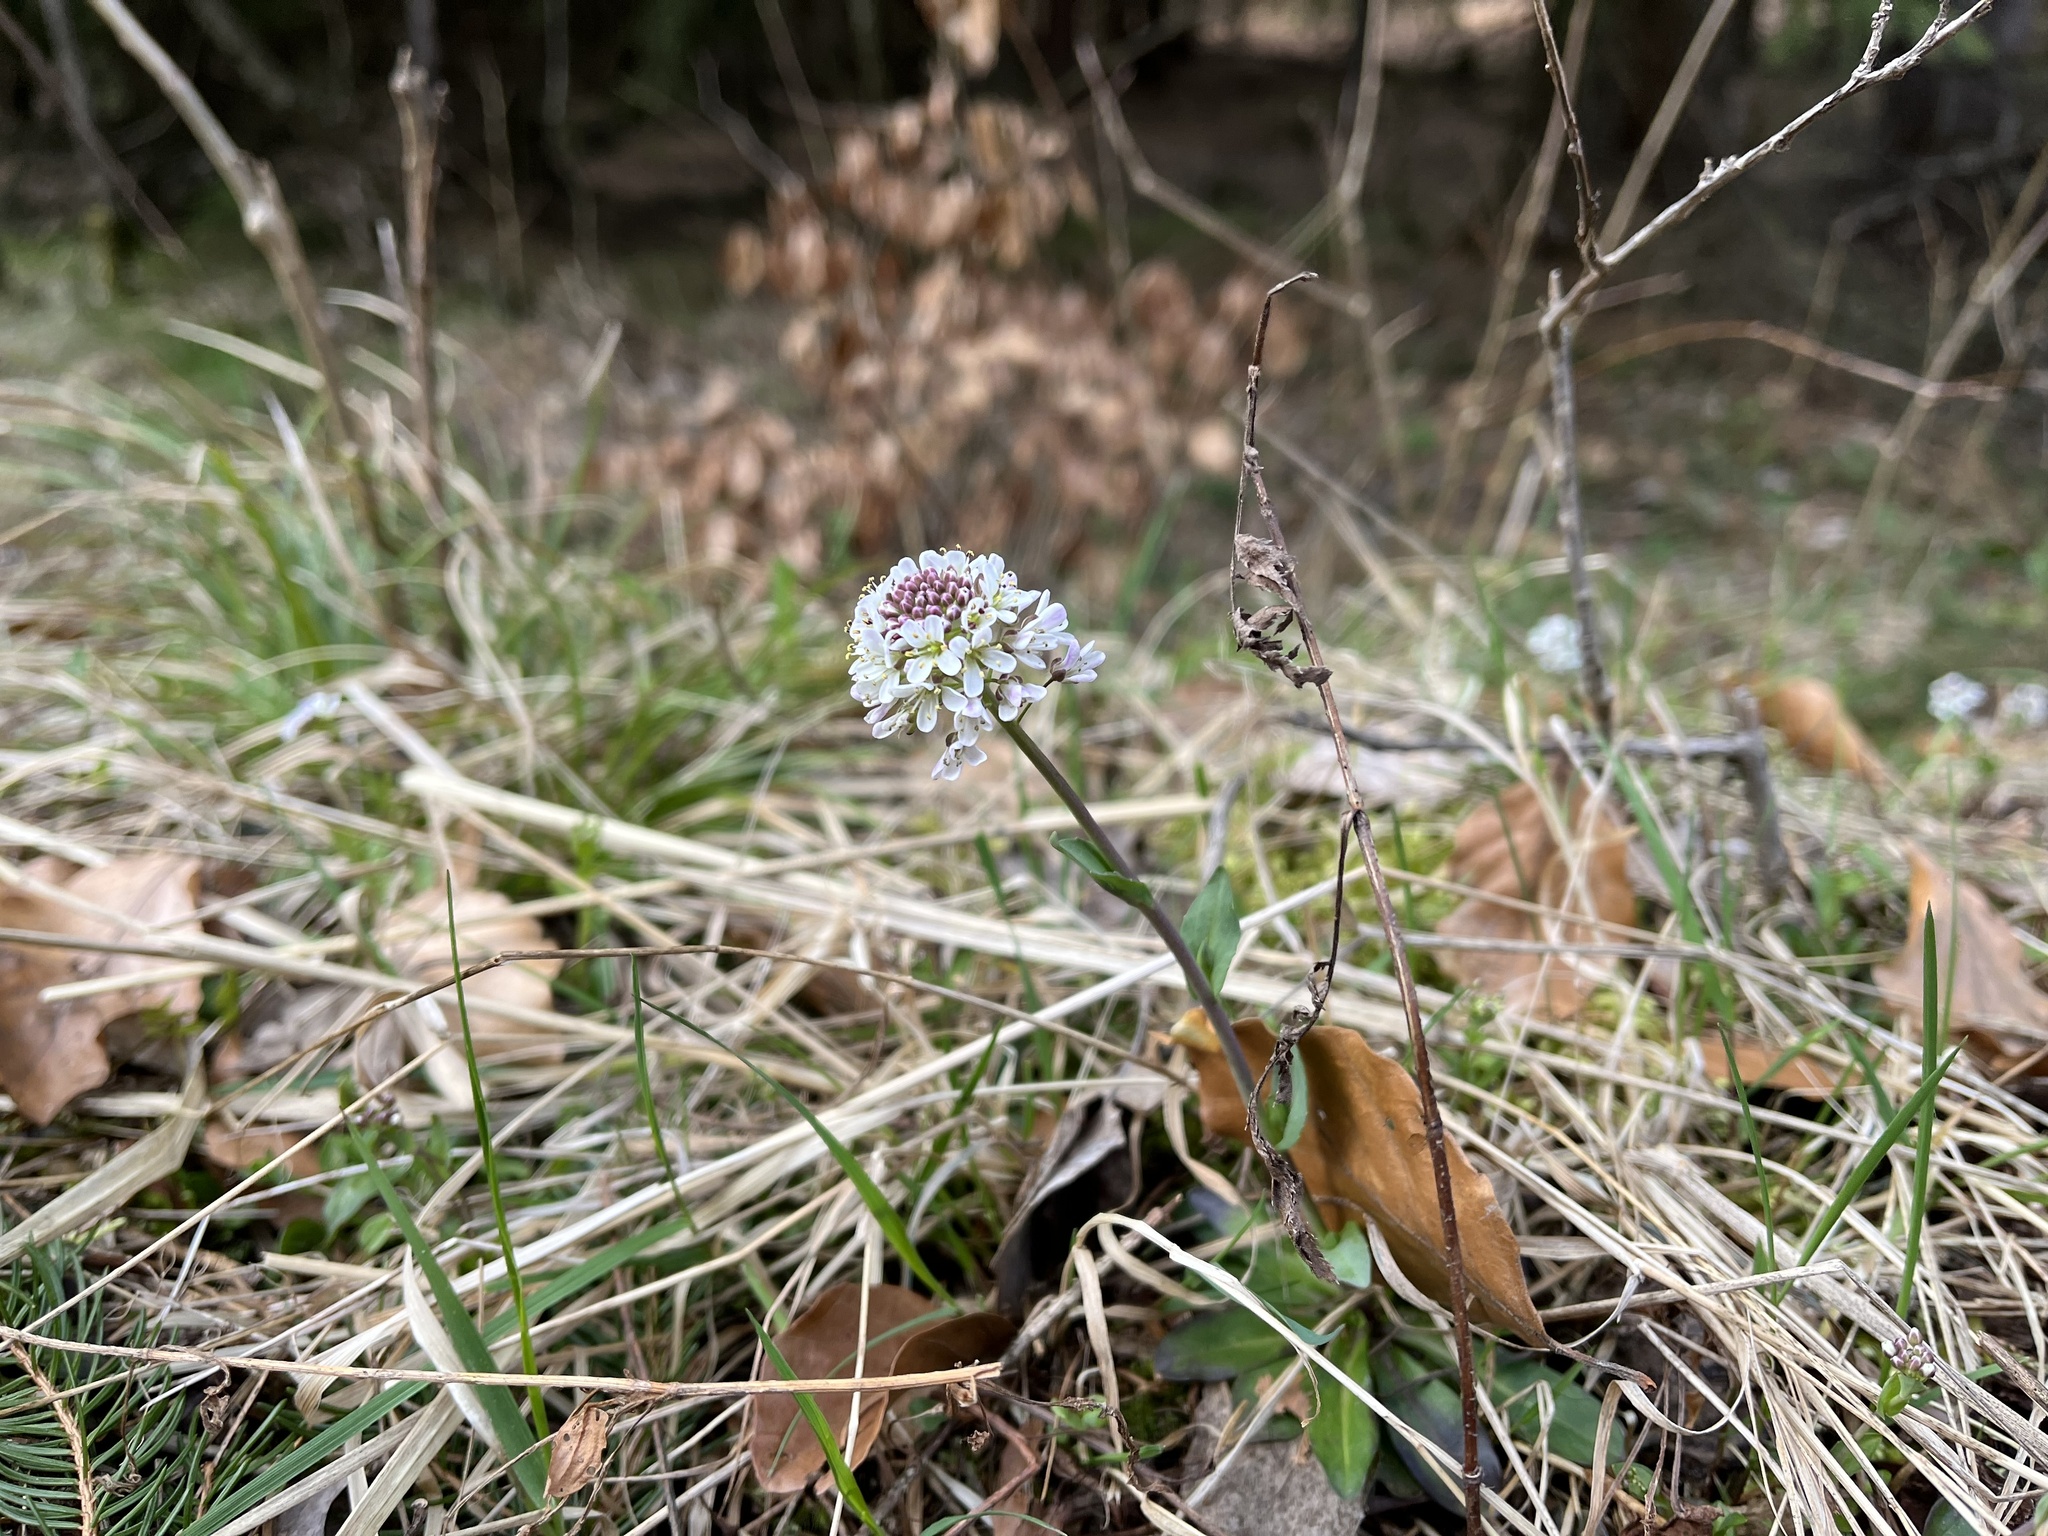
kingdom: Plantae
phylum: Tracheophyta
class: Magnoliopsida
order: Brassicales
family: Brassicaceae
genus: Noccaea
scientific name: Noccaea caerulescens
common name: Alpine pennycress
